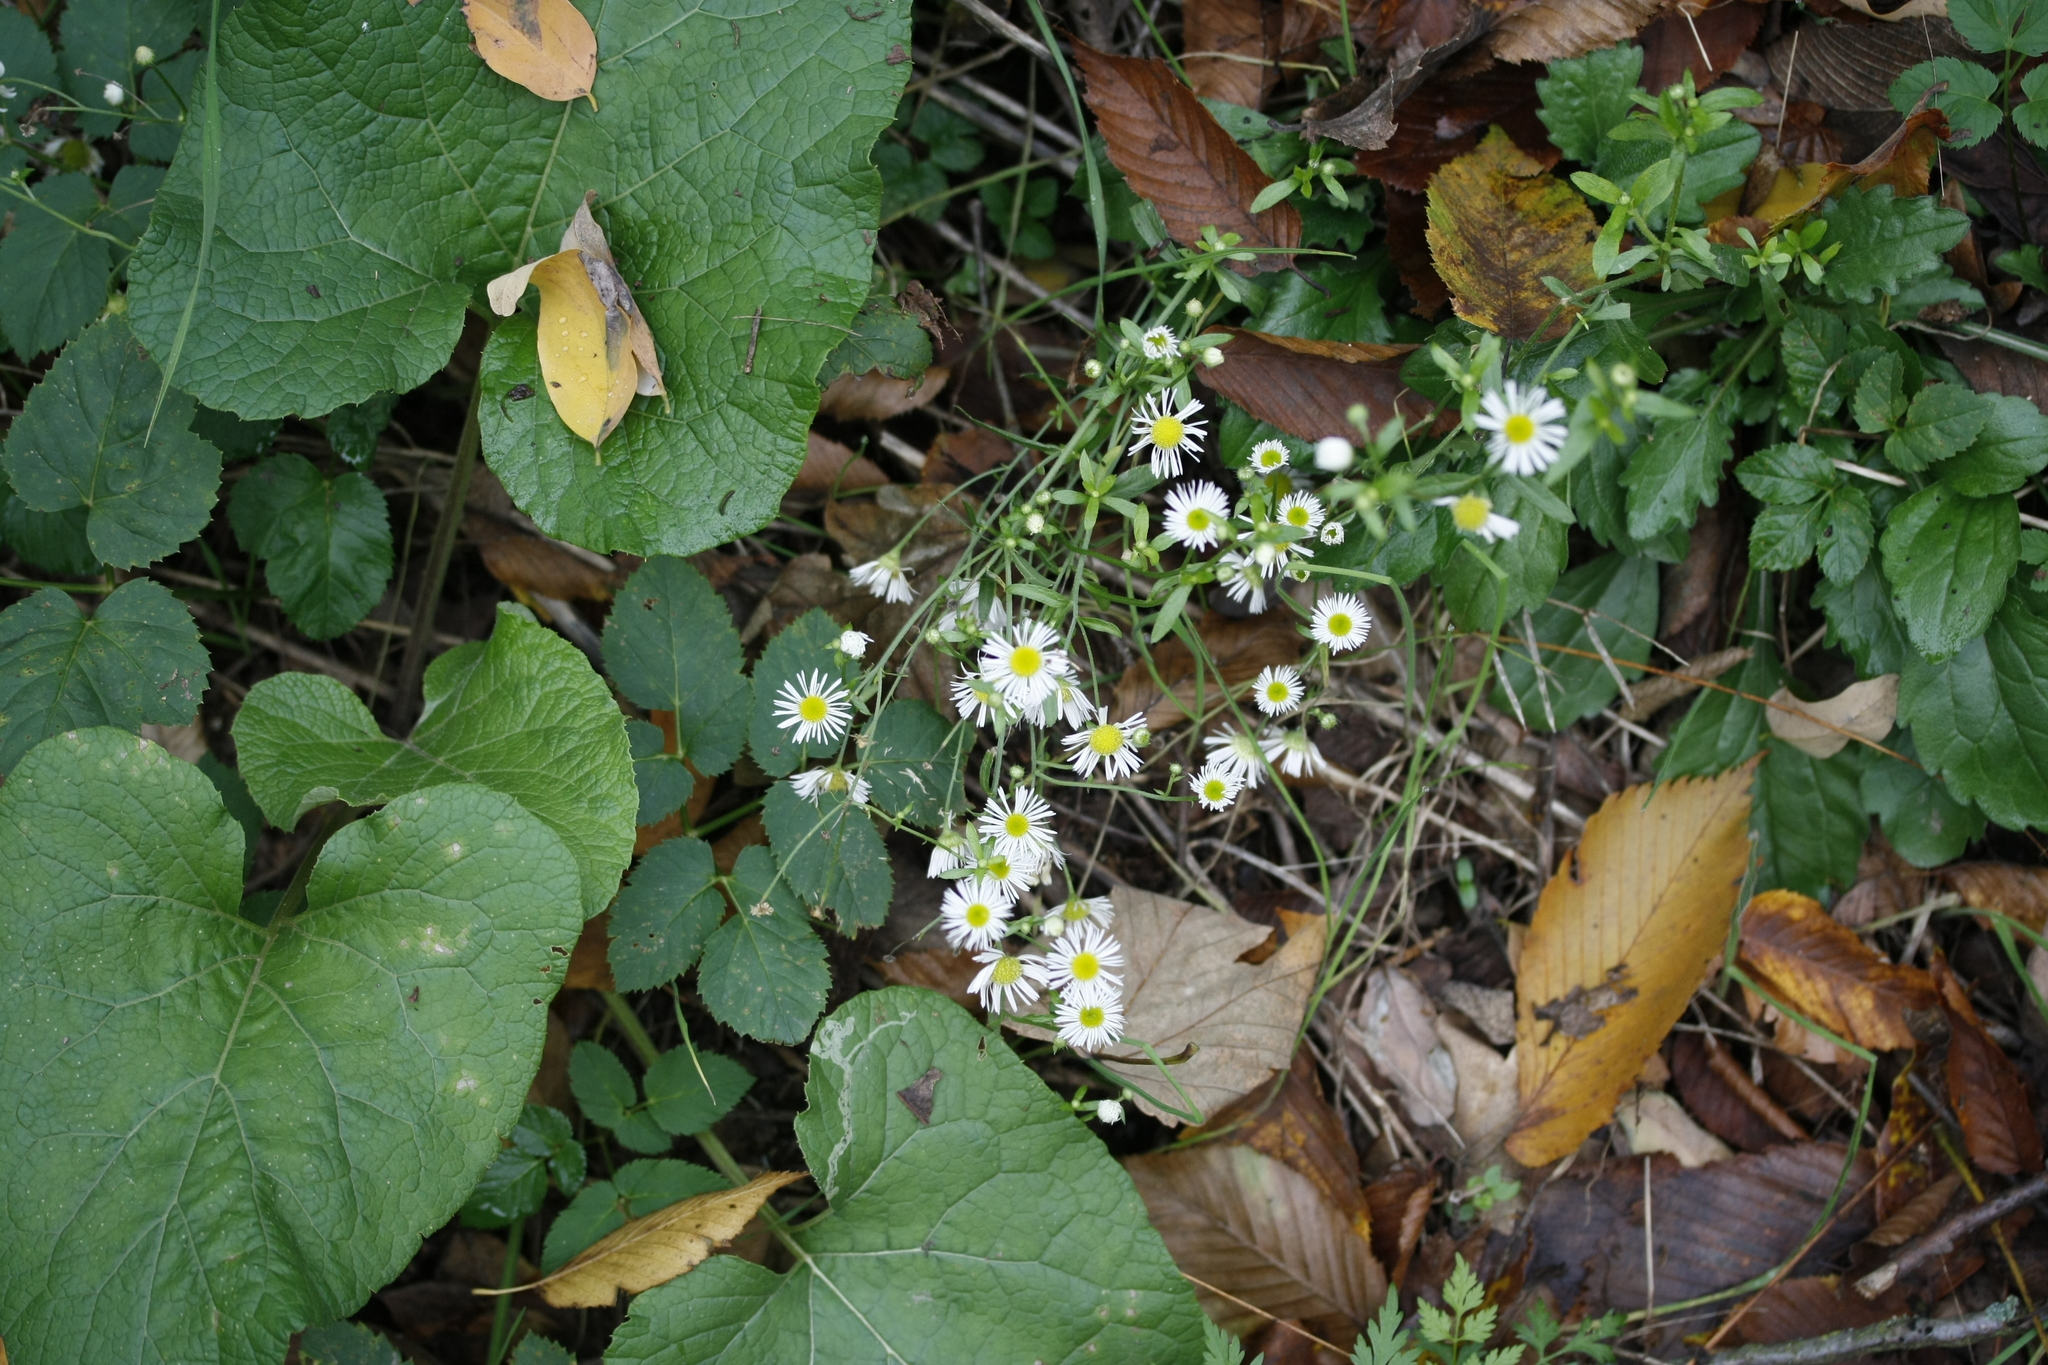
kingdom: Plantae
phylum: Tracheophyta
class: Magnoliopsida
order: Asterales
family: Asteraceae
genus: Erigeron
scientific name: Erigeron annuus
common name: Tall fleabane
